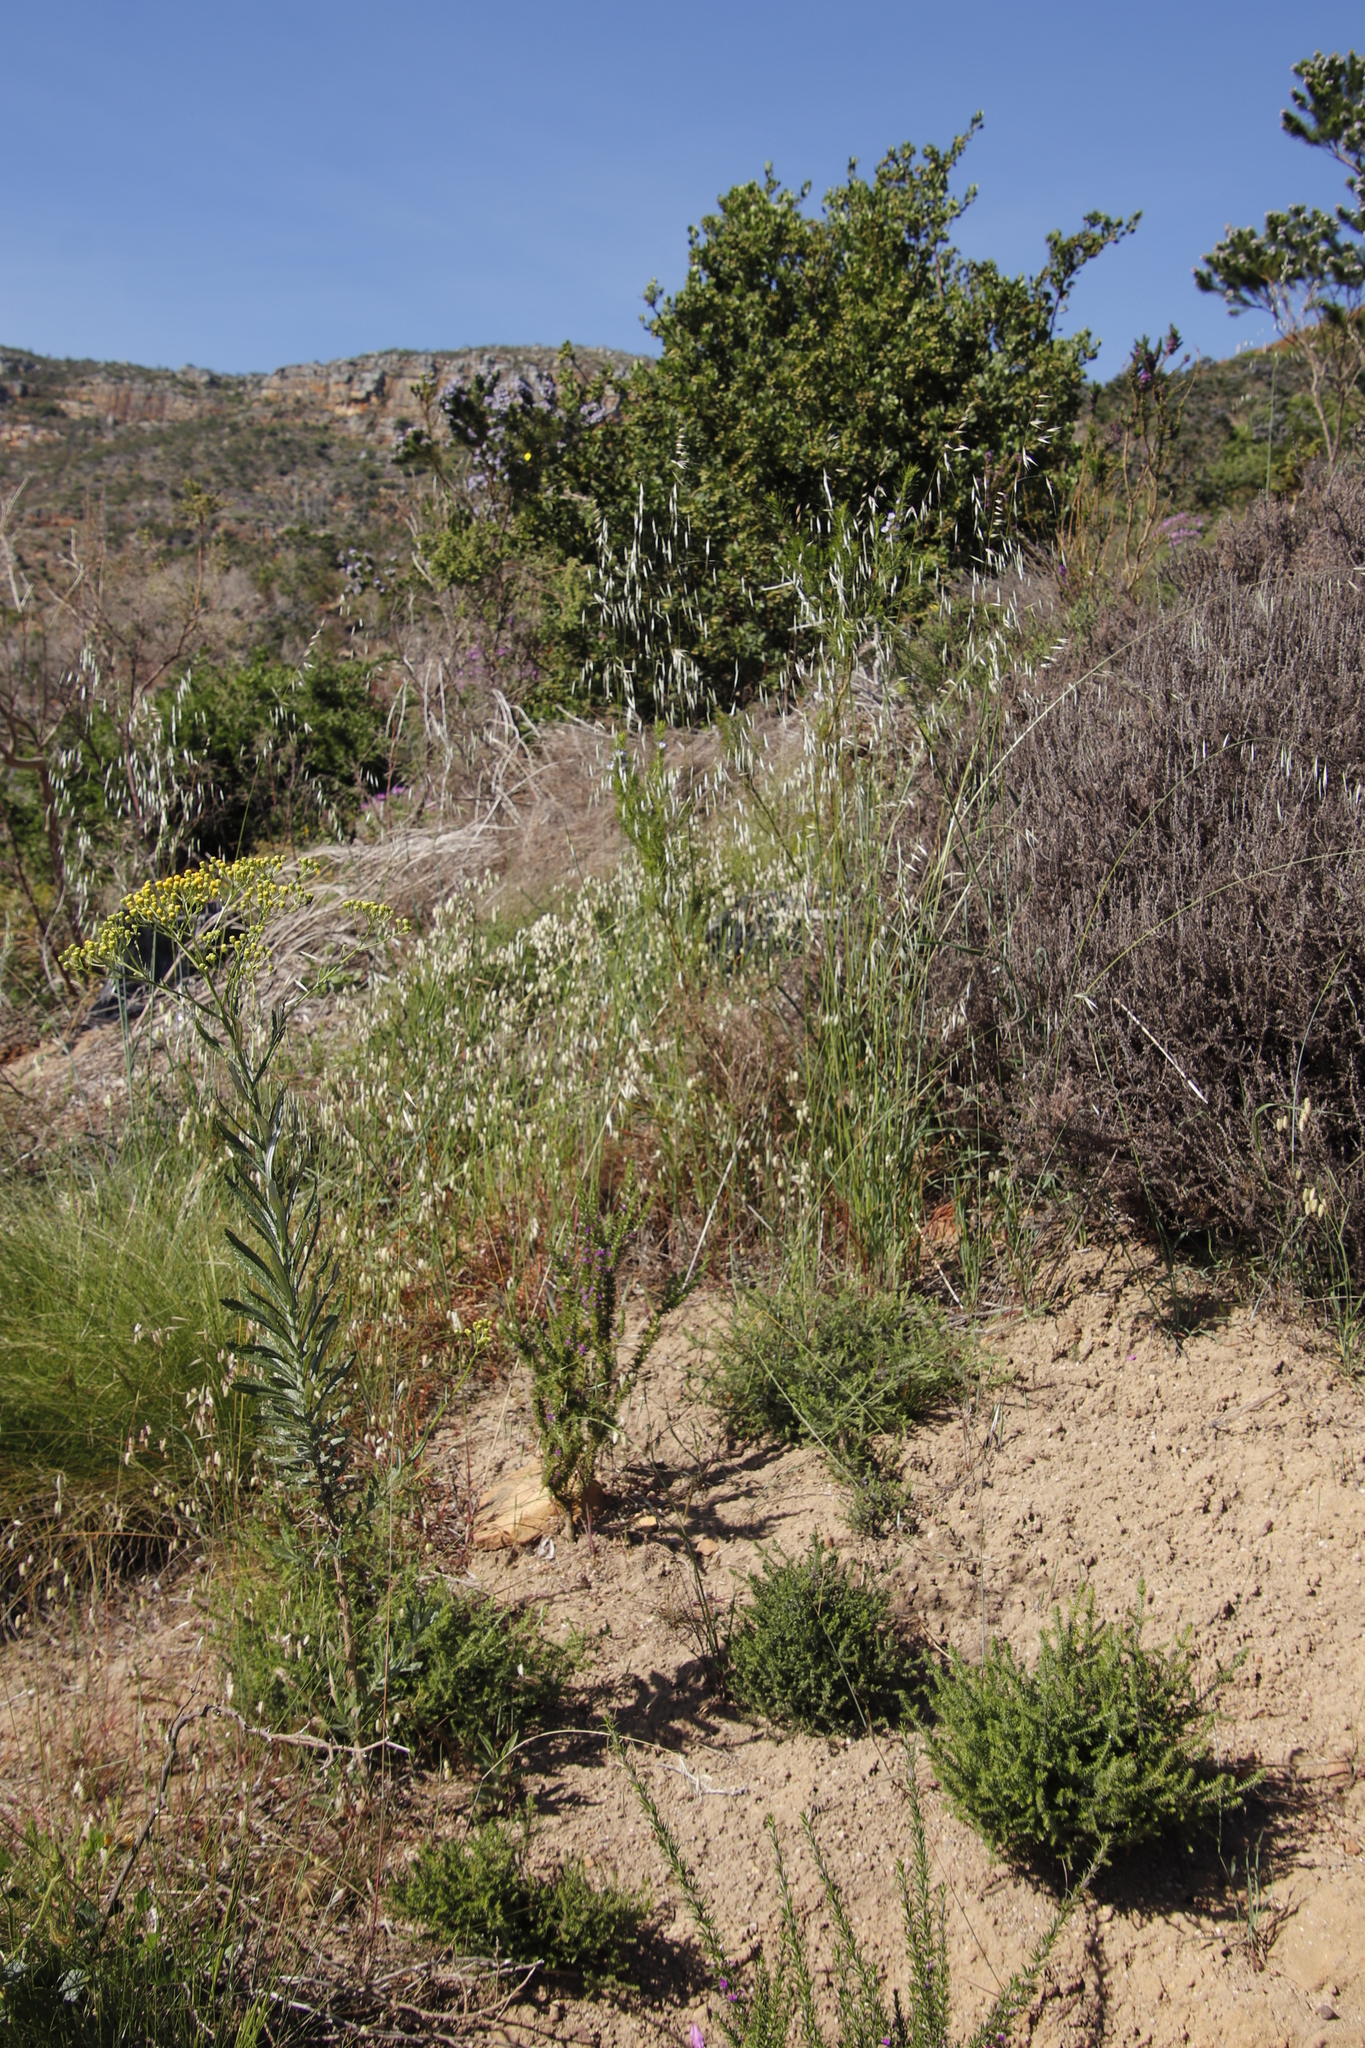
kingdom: Plantae
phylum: Tracheophyta
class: Liliopsida
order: Poales
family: Poaceae
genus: Briza
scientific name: Briza maxima
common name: Big quakinggrass
